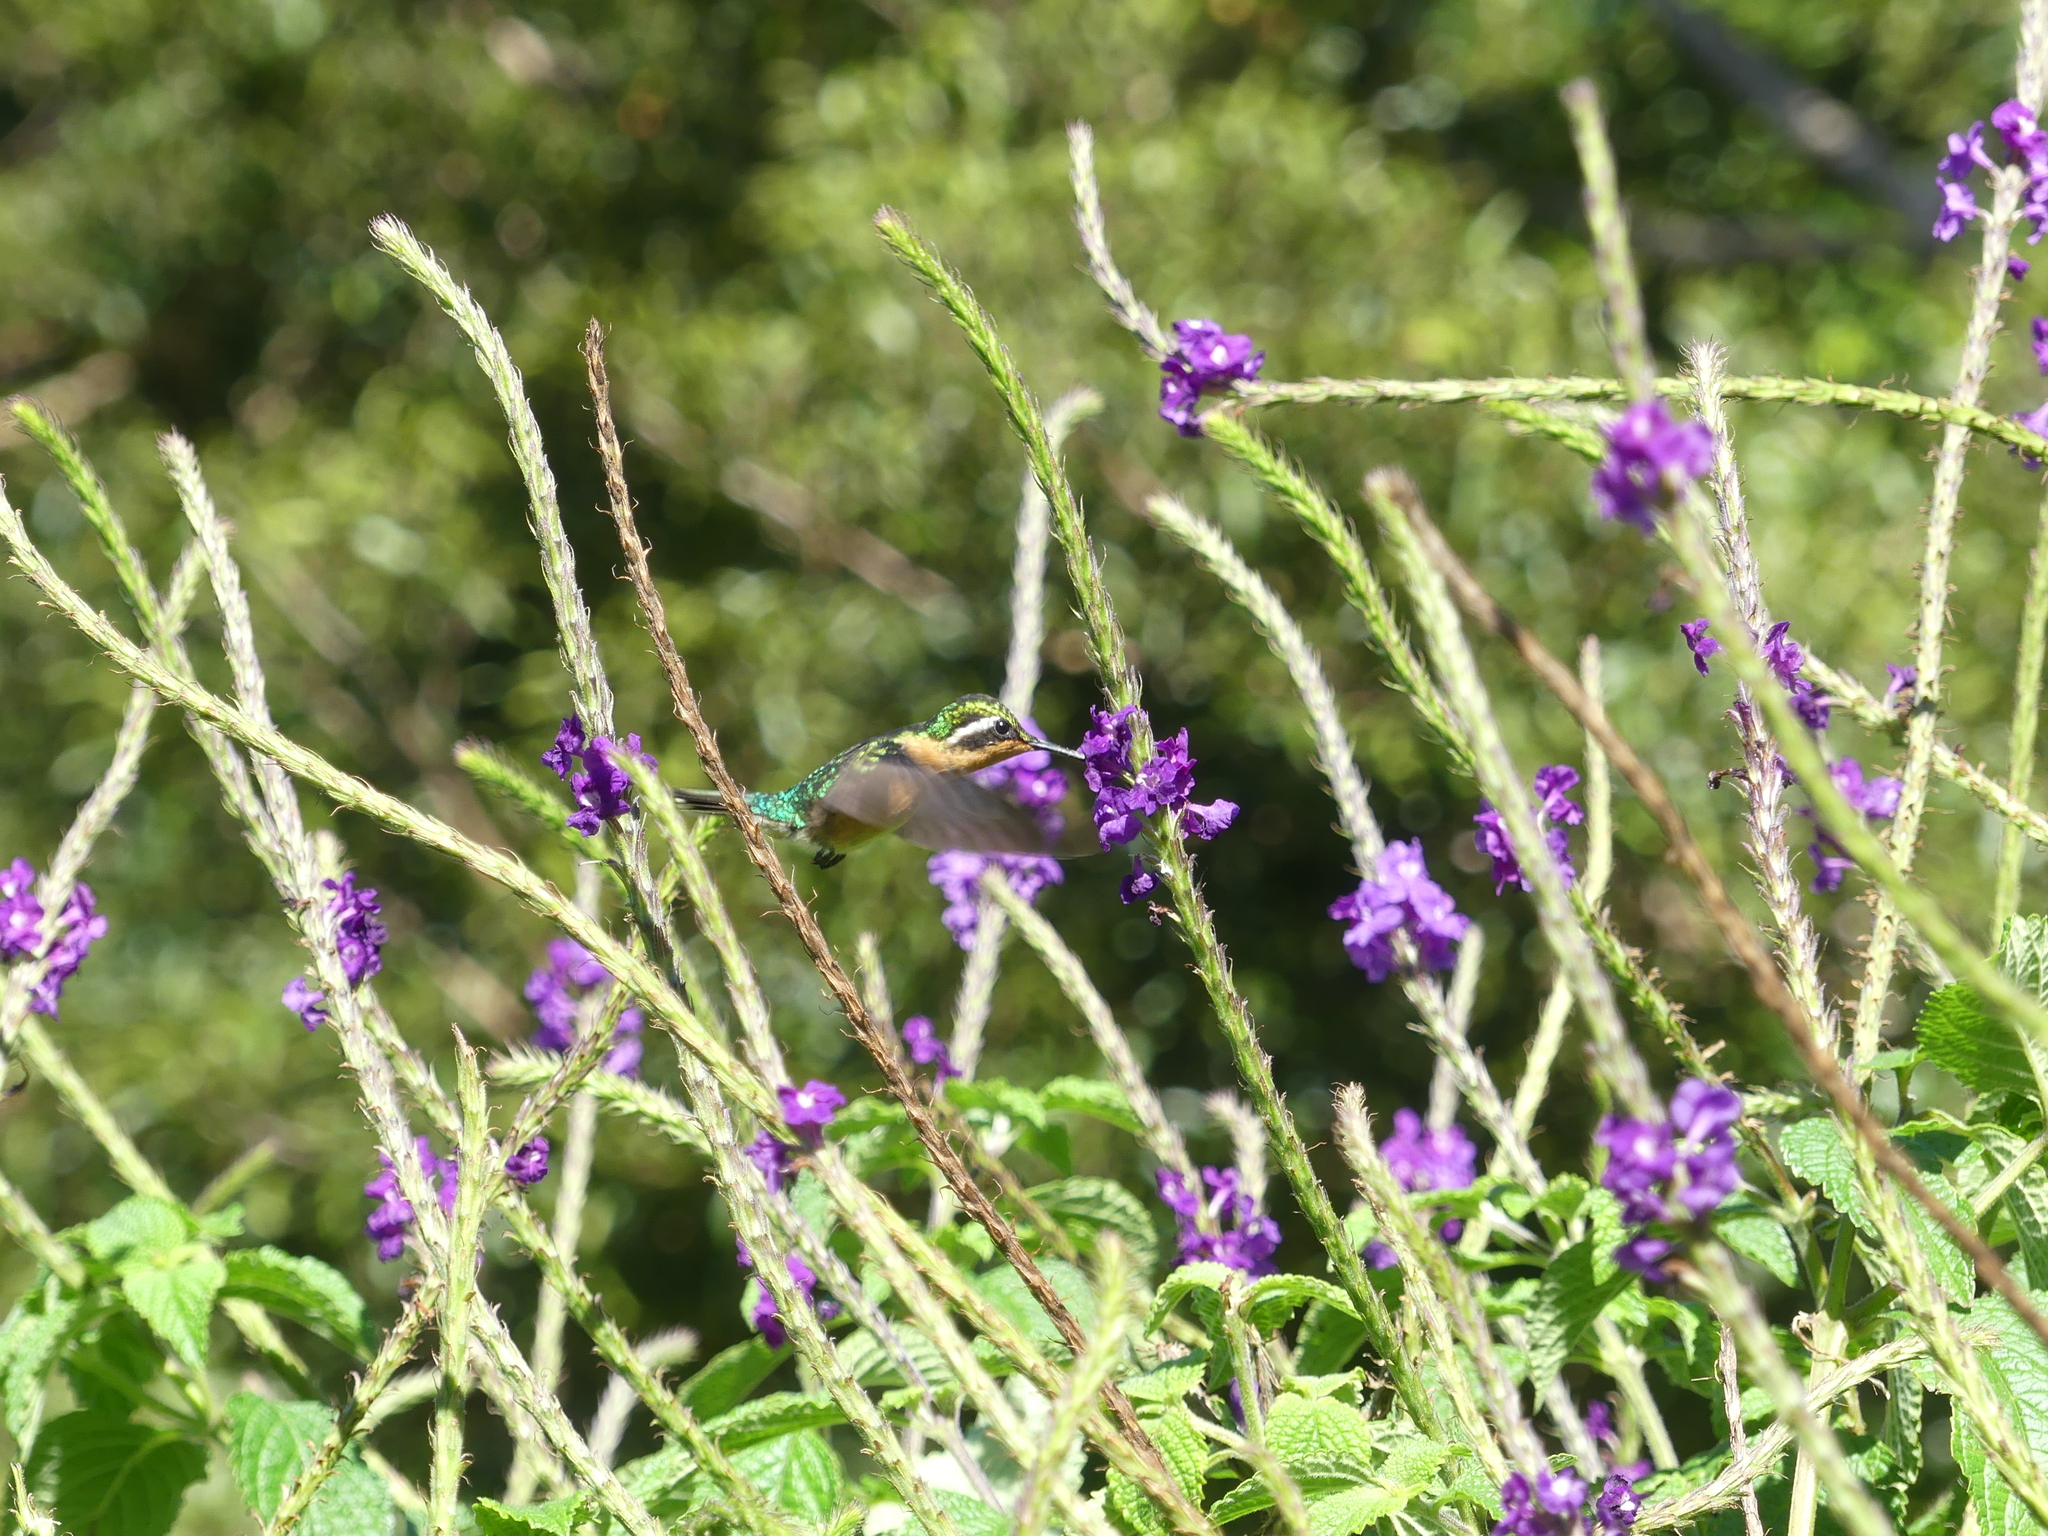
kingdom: Animalia
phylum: Chordata
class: Aves
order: Apodiformes
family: Trochilidae
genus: Lampornis
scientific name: Lampornis calolaemus
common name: Purple-throated mountain-gem
